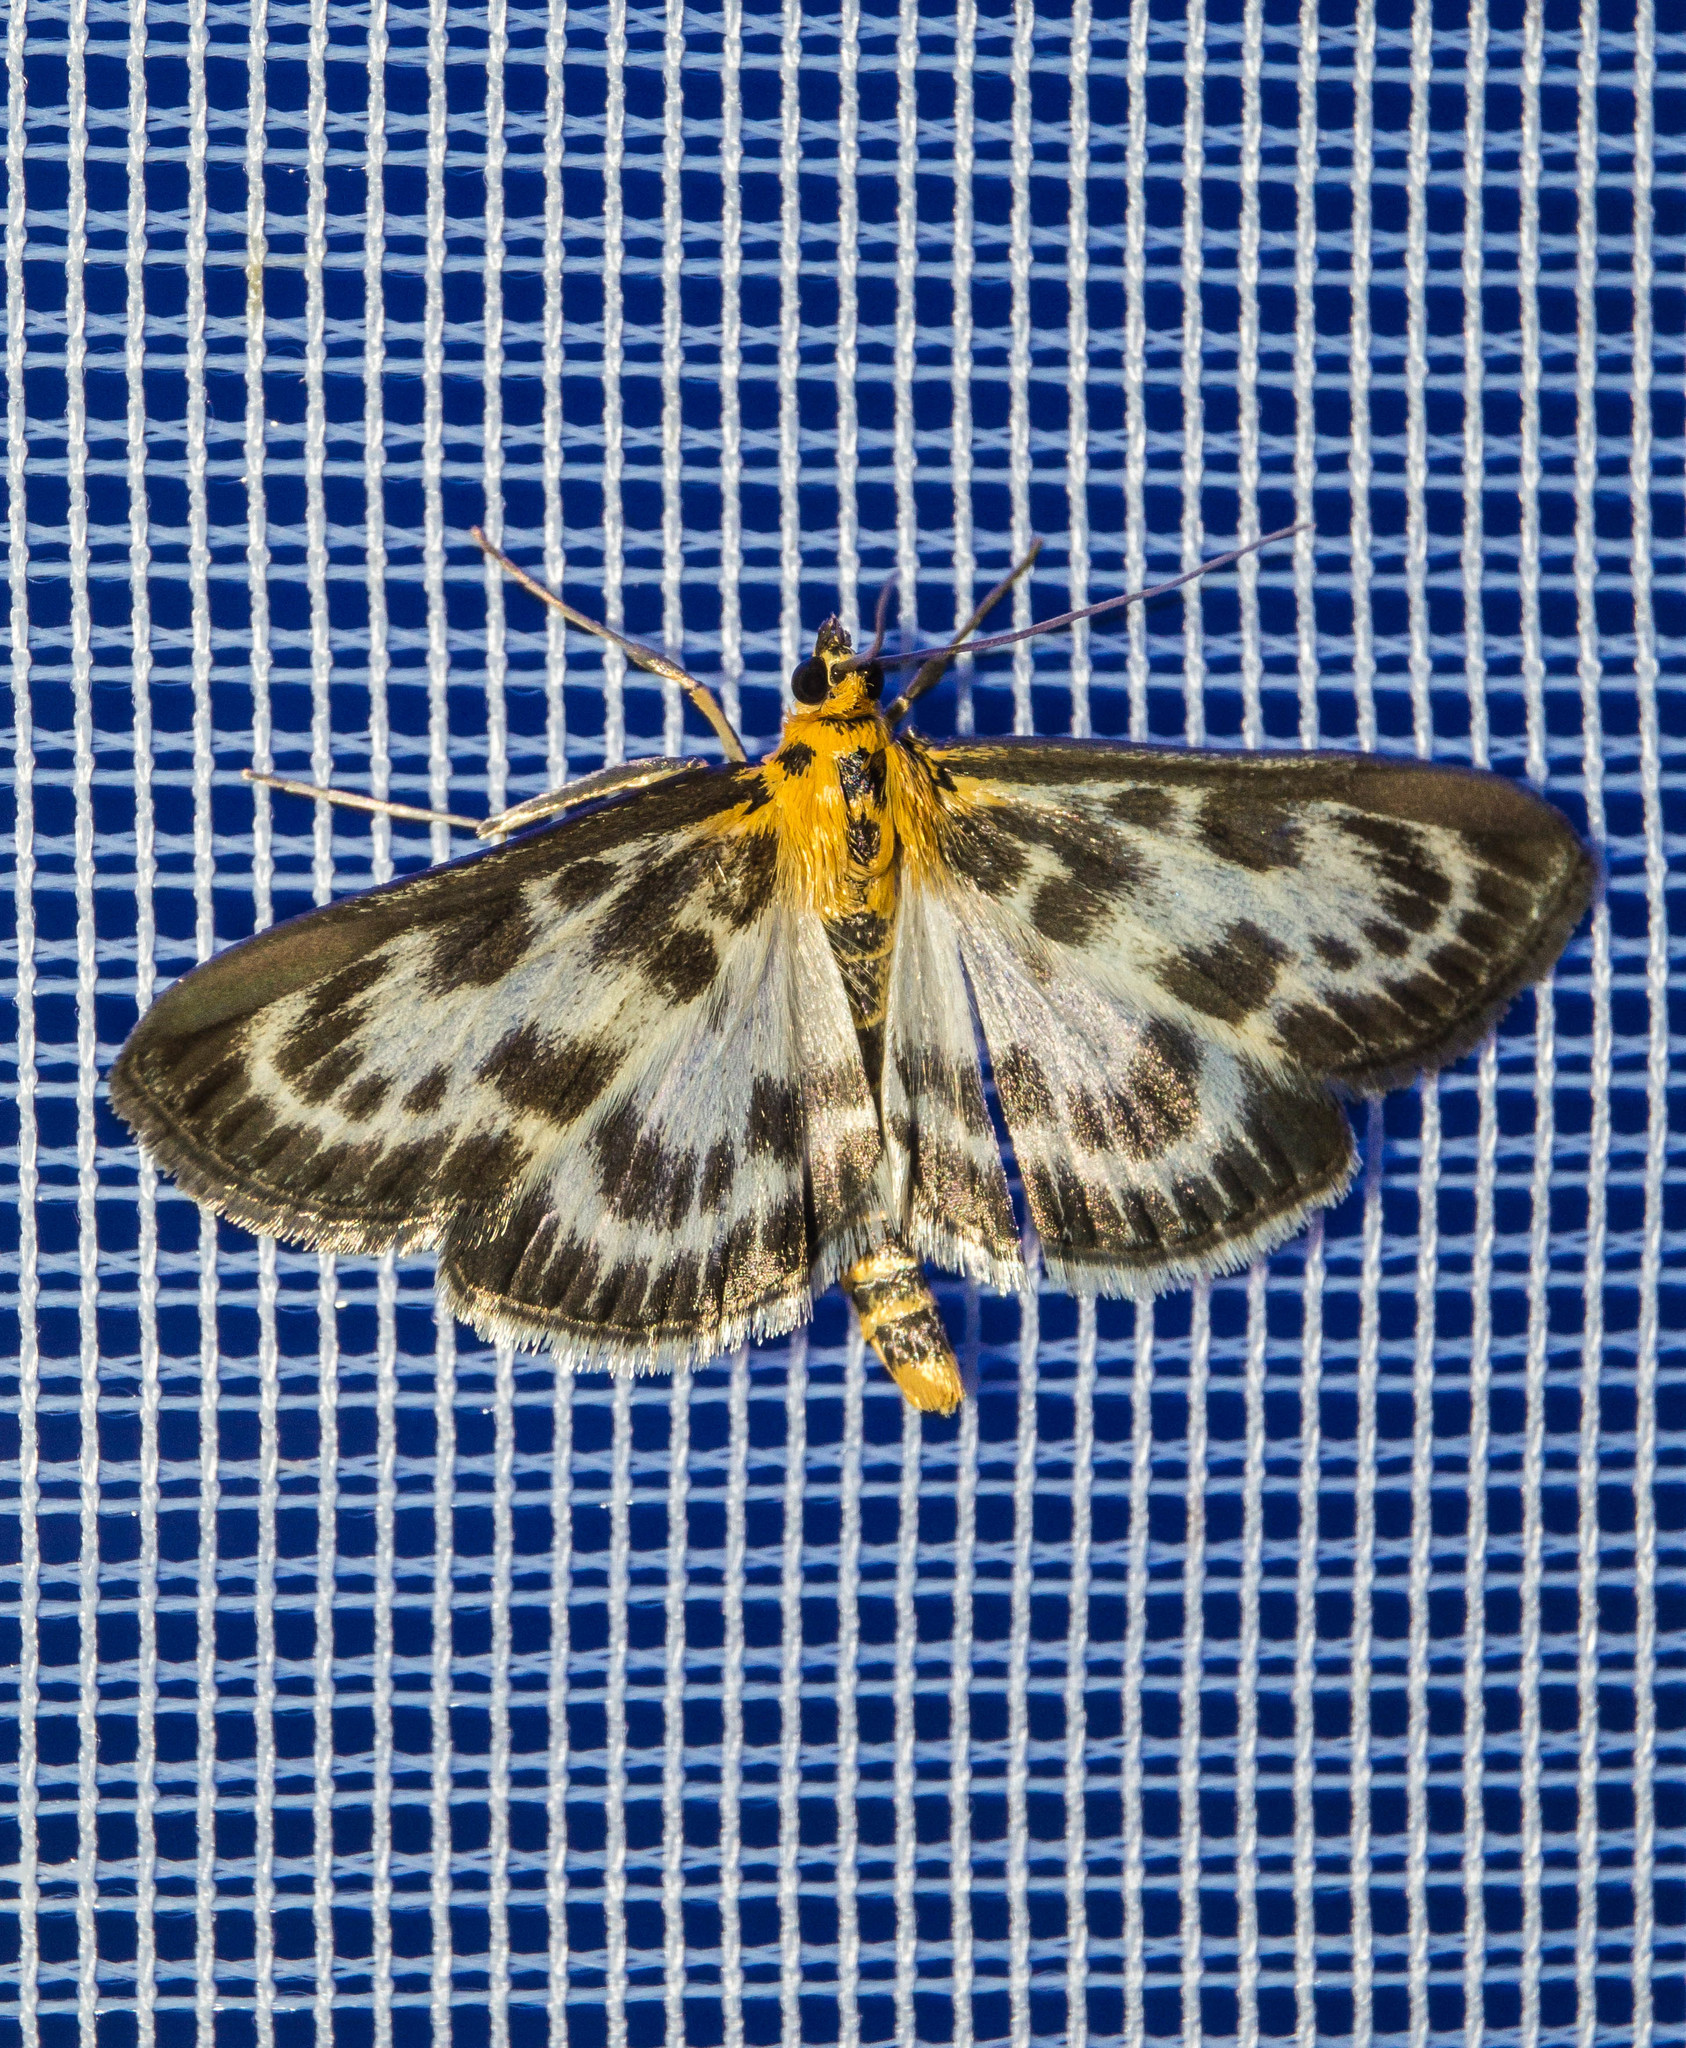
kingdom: Animalia
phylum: Arthropoda
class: Insecta
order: Lepidoptera
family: Crambidae
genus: Anania
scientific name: Anania hortulata
